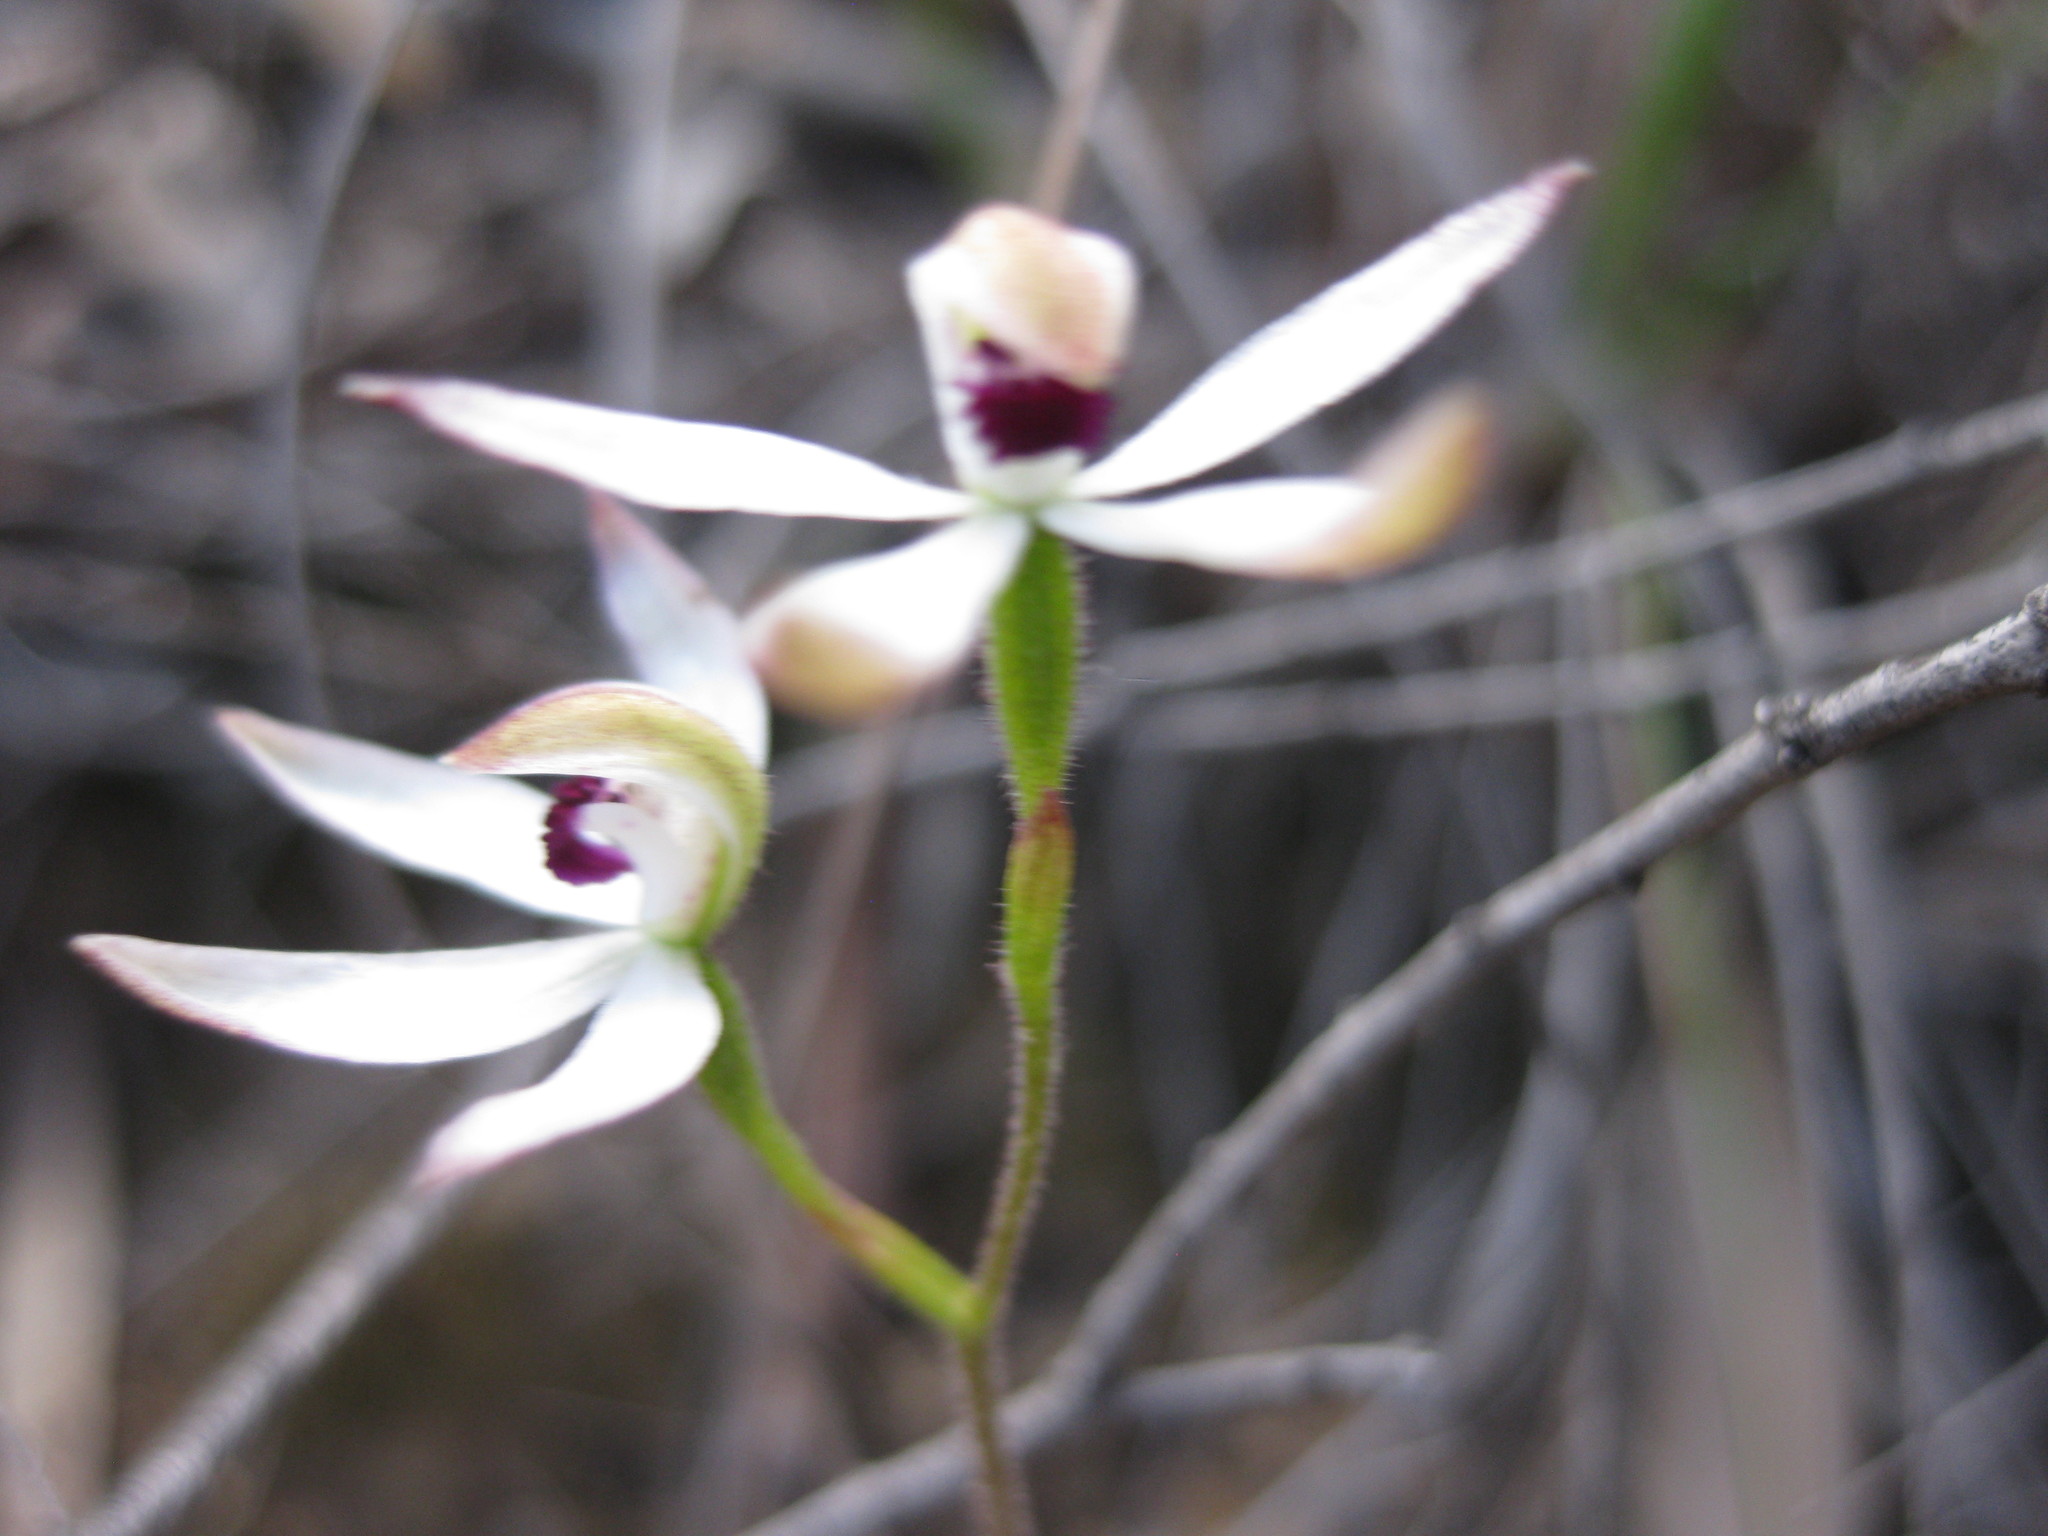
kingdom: Plantae
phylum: Tracheophyta
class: Liliopsida
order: Asparagales
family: Orchidaceae
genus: Caladenia
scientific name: Caladenia cucullata
